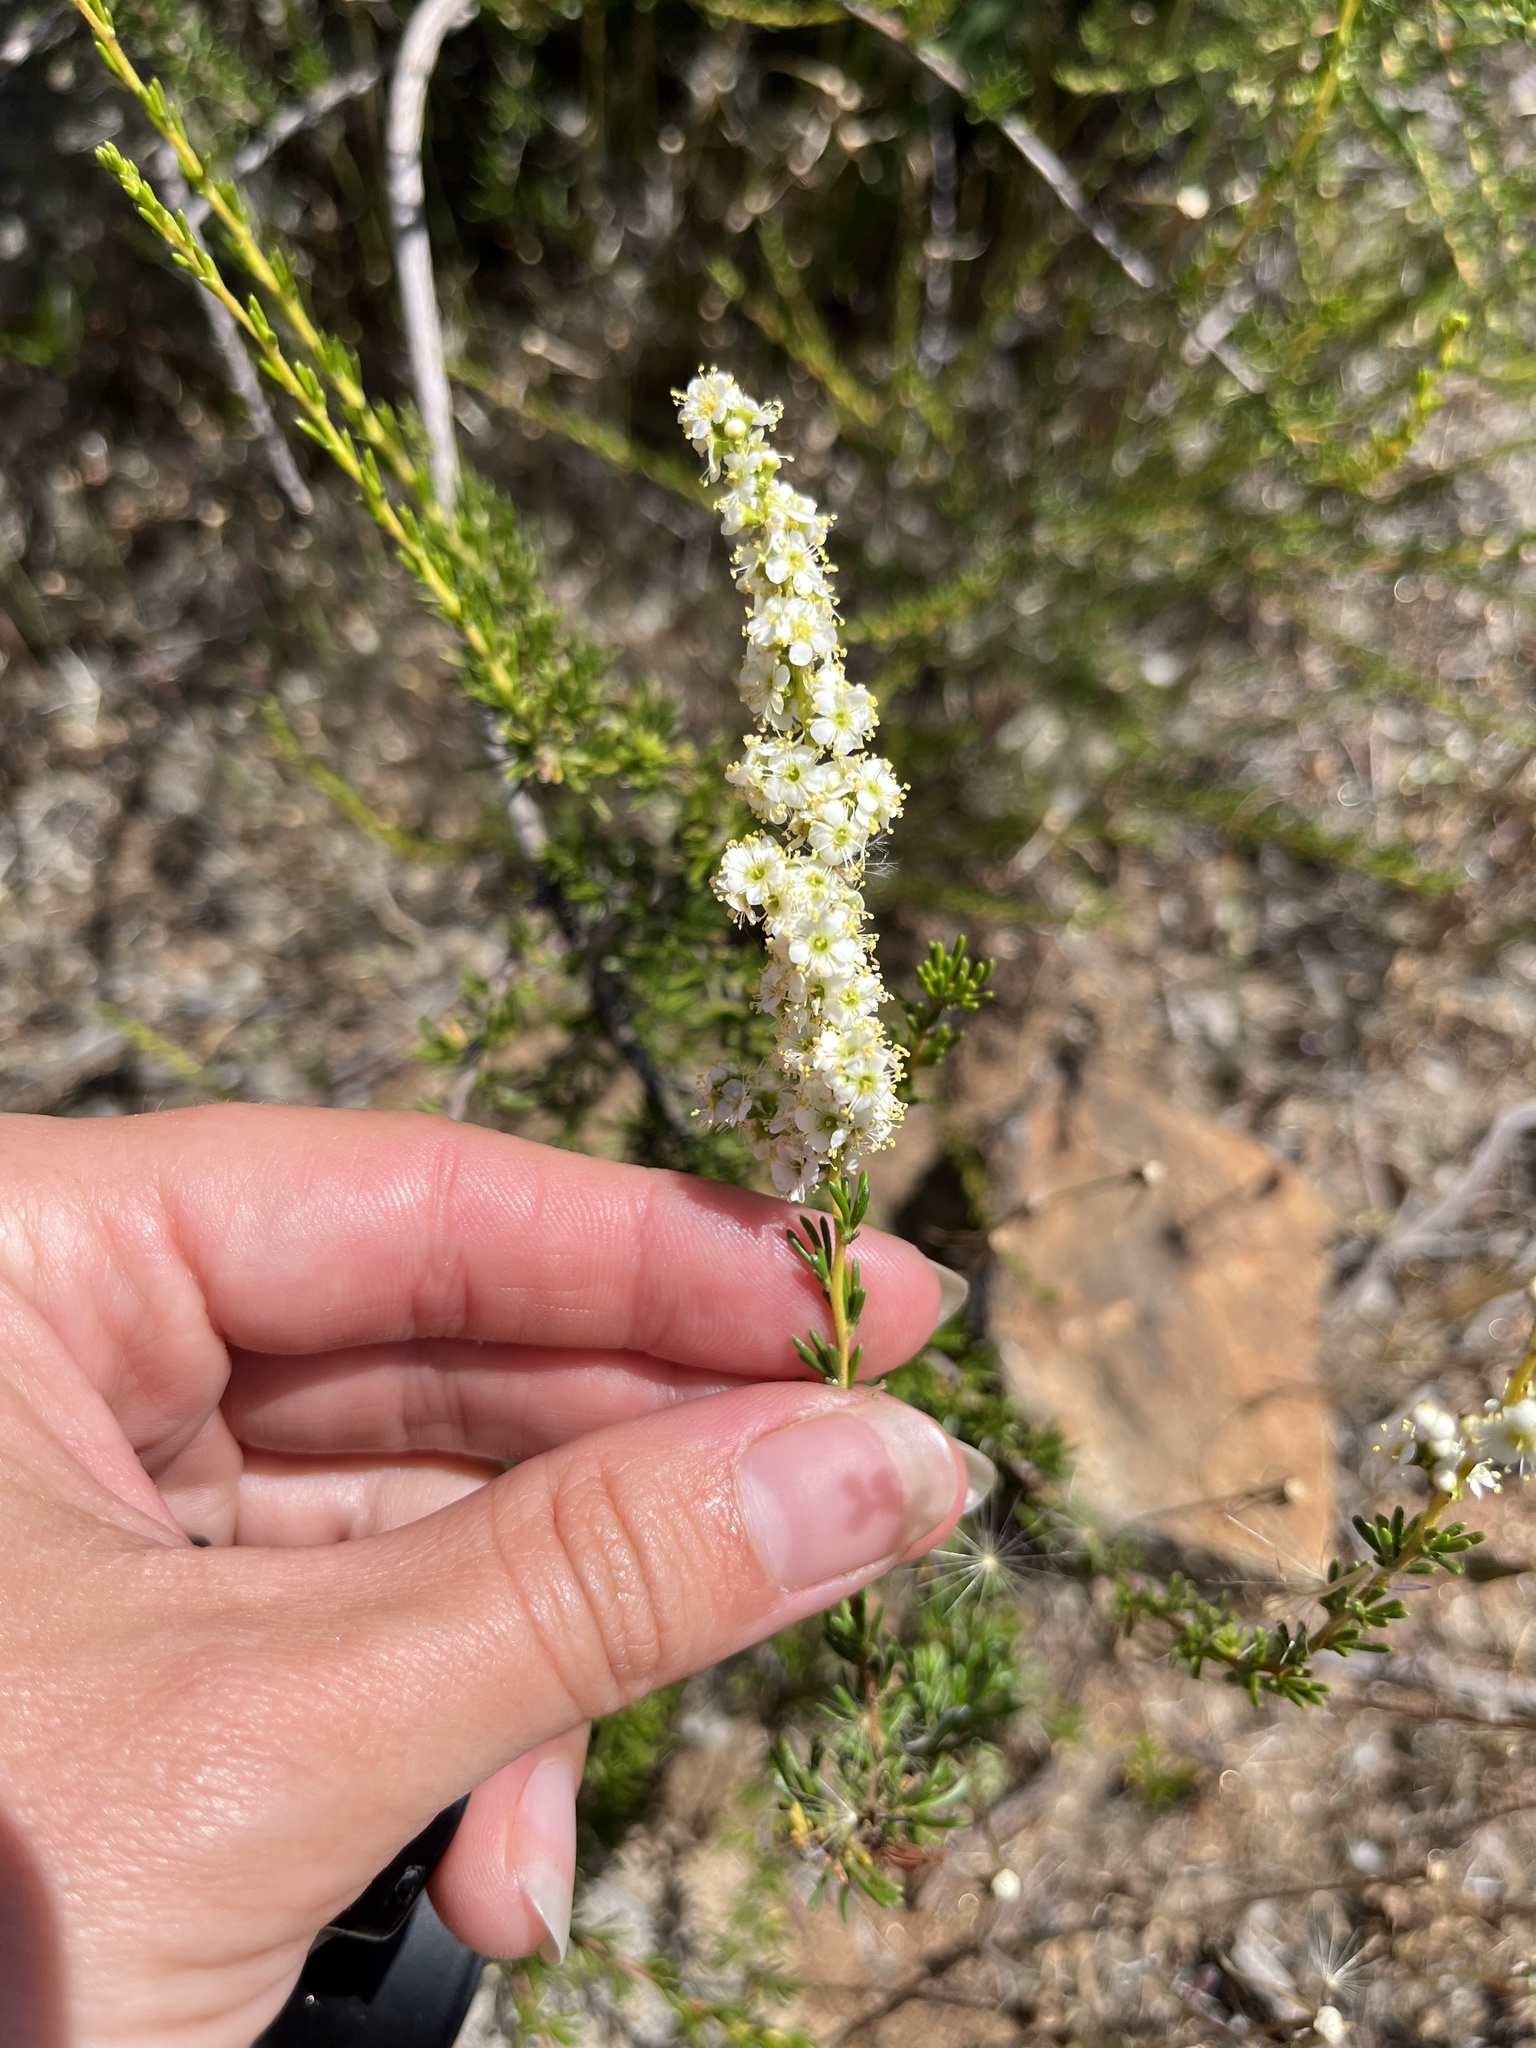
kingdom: Plantae
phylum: Tracheophyta
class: Magnoliopsida
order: Rosales
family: Rosaceae
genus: Adenostoma
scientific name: Adenostoma fasciculatum
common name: Chamise
